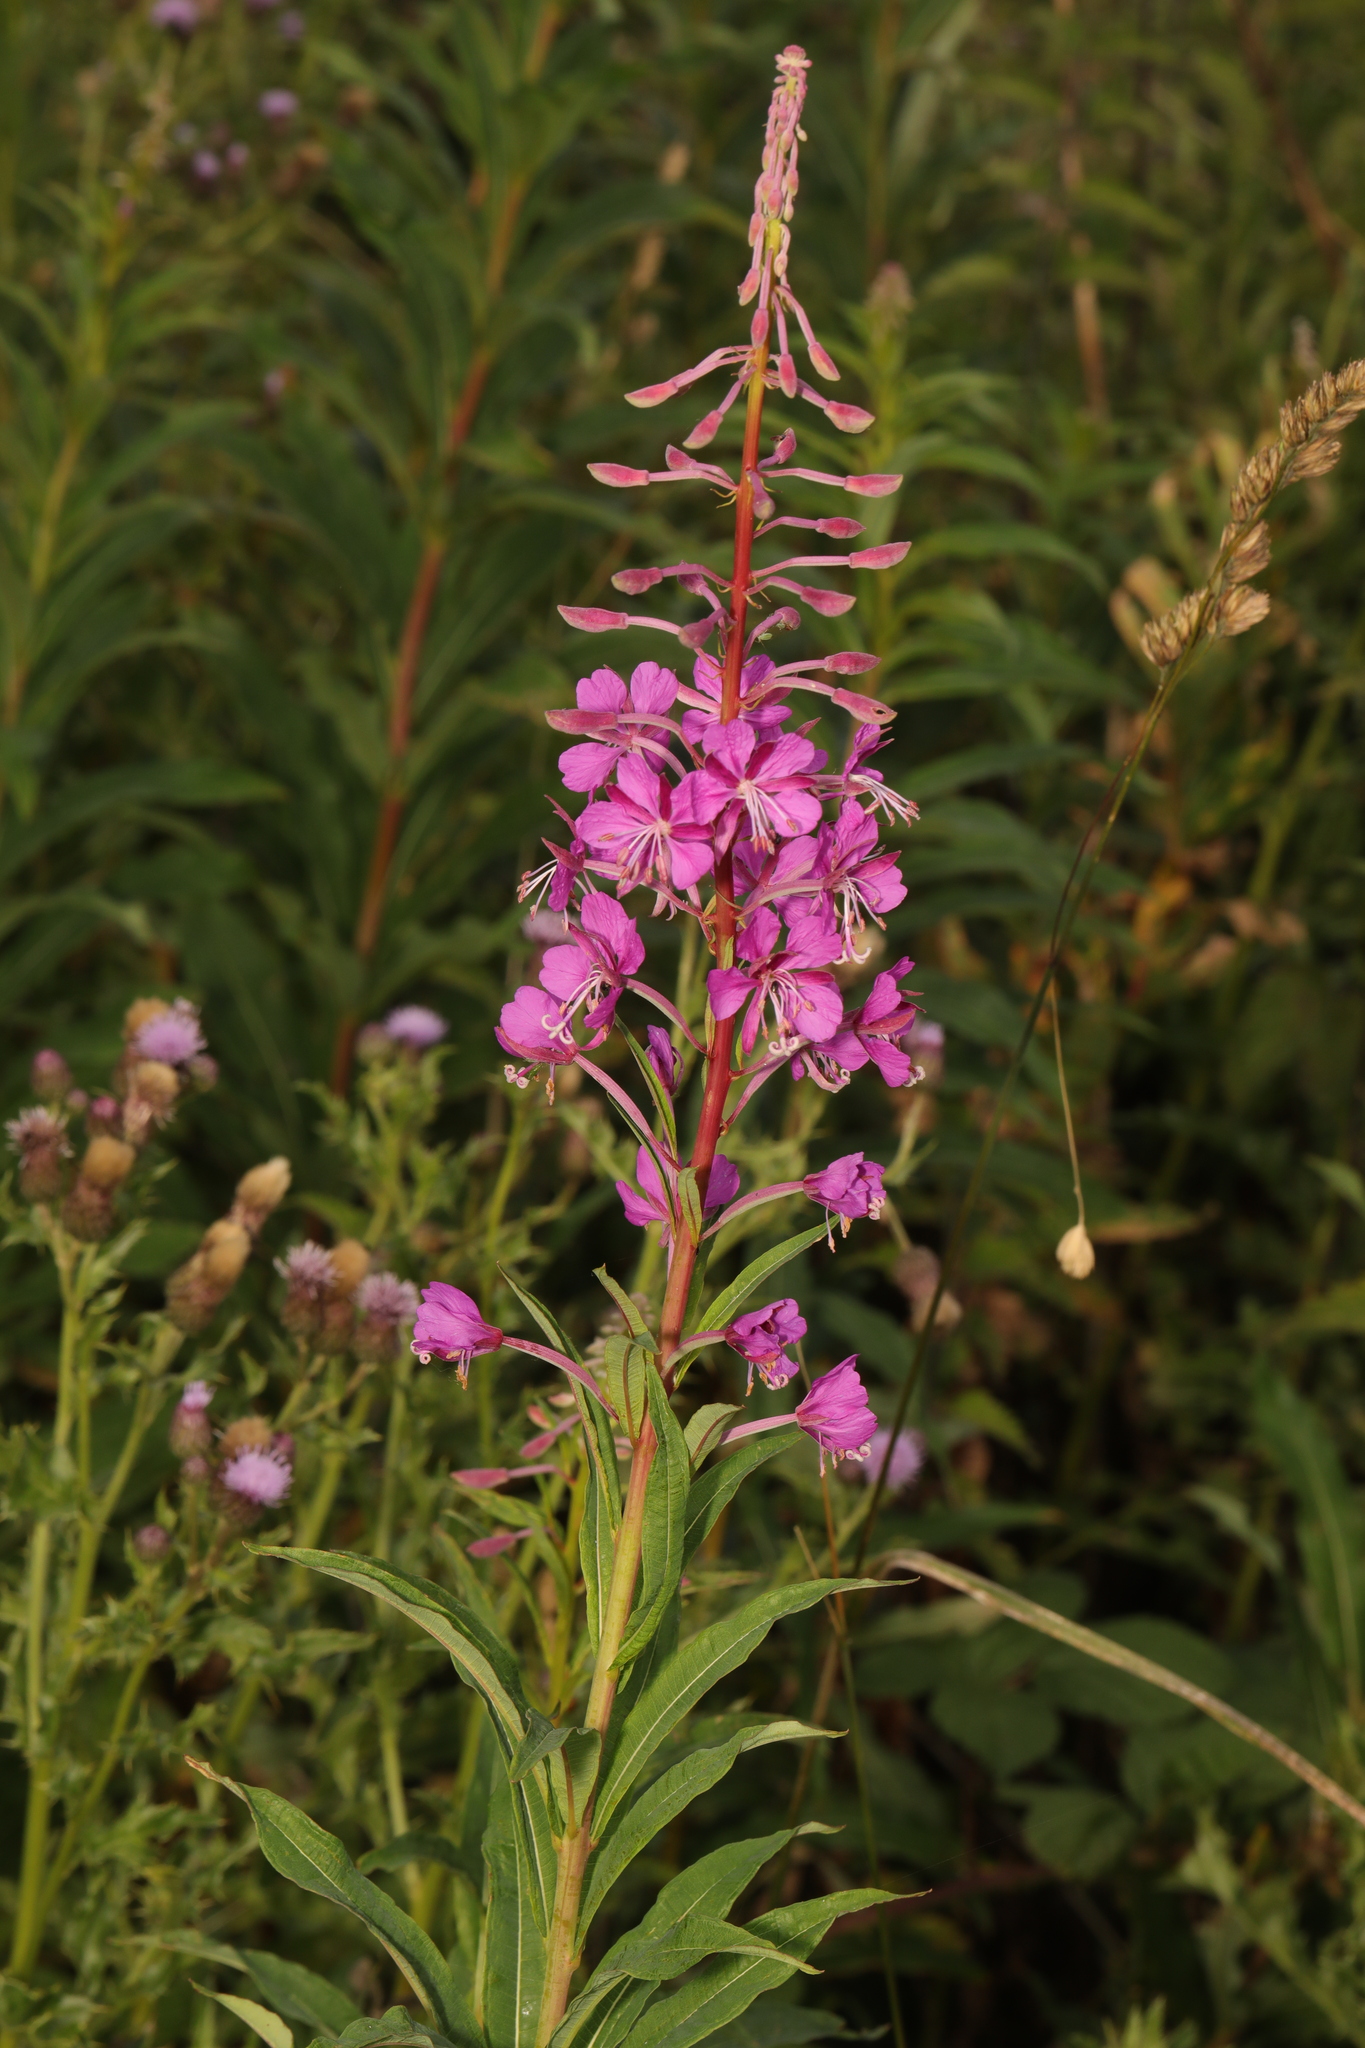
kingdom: Plantae
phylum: Tracheophyta
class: Magnoliopsida
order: Myrtales
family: Onagraceae
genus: Chamaenerion
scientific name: Chamaenerion angustifolium
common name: Fireweed
